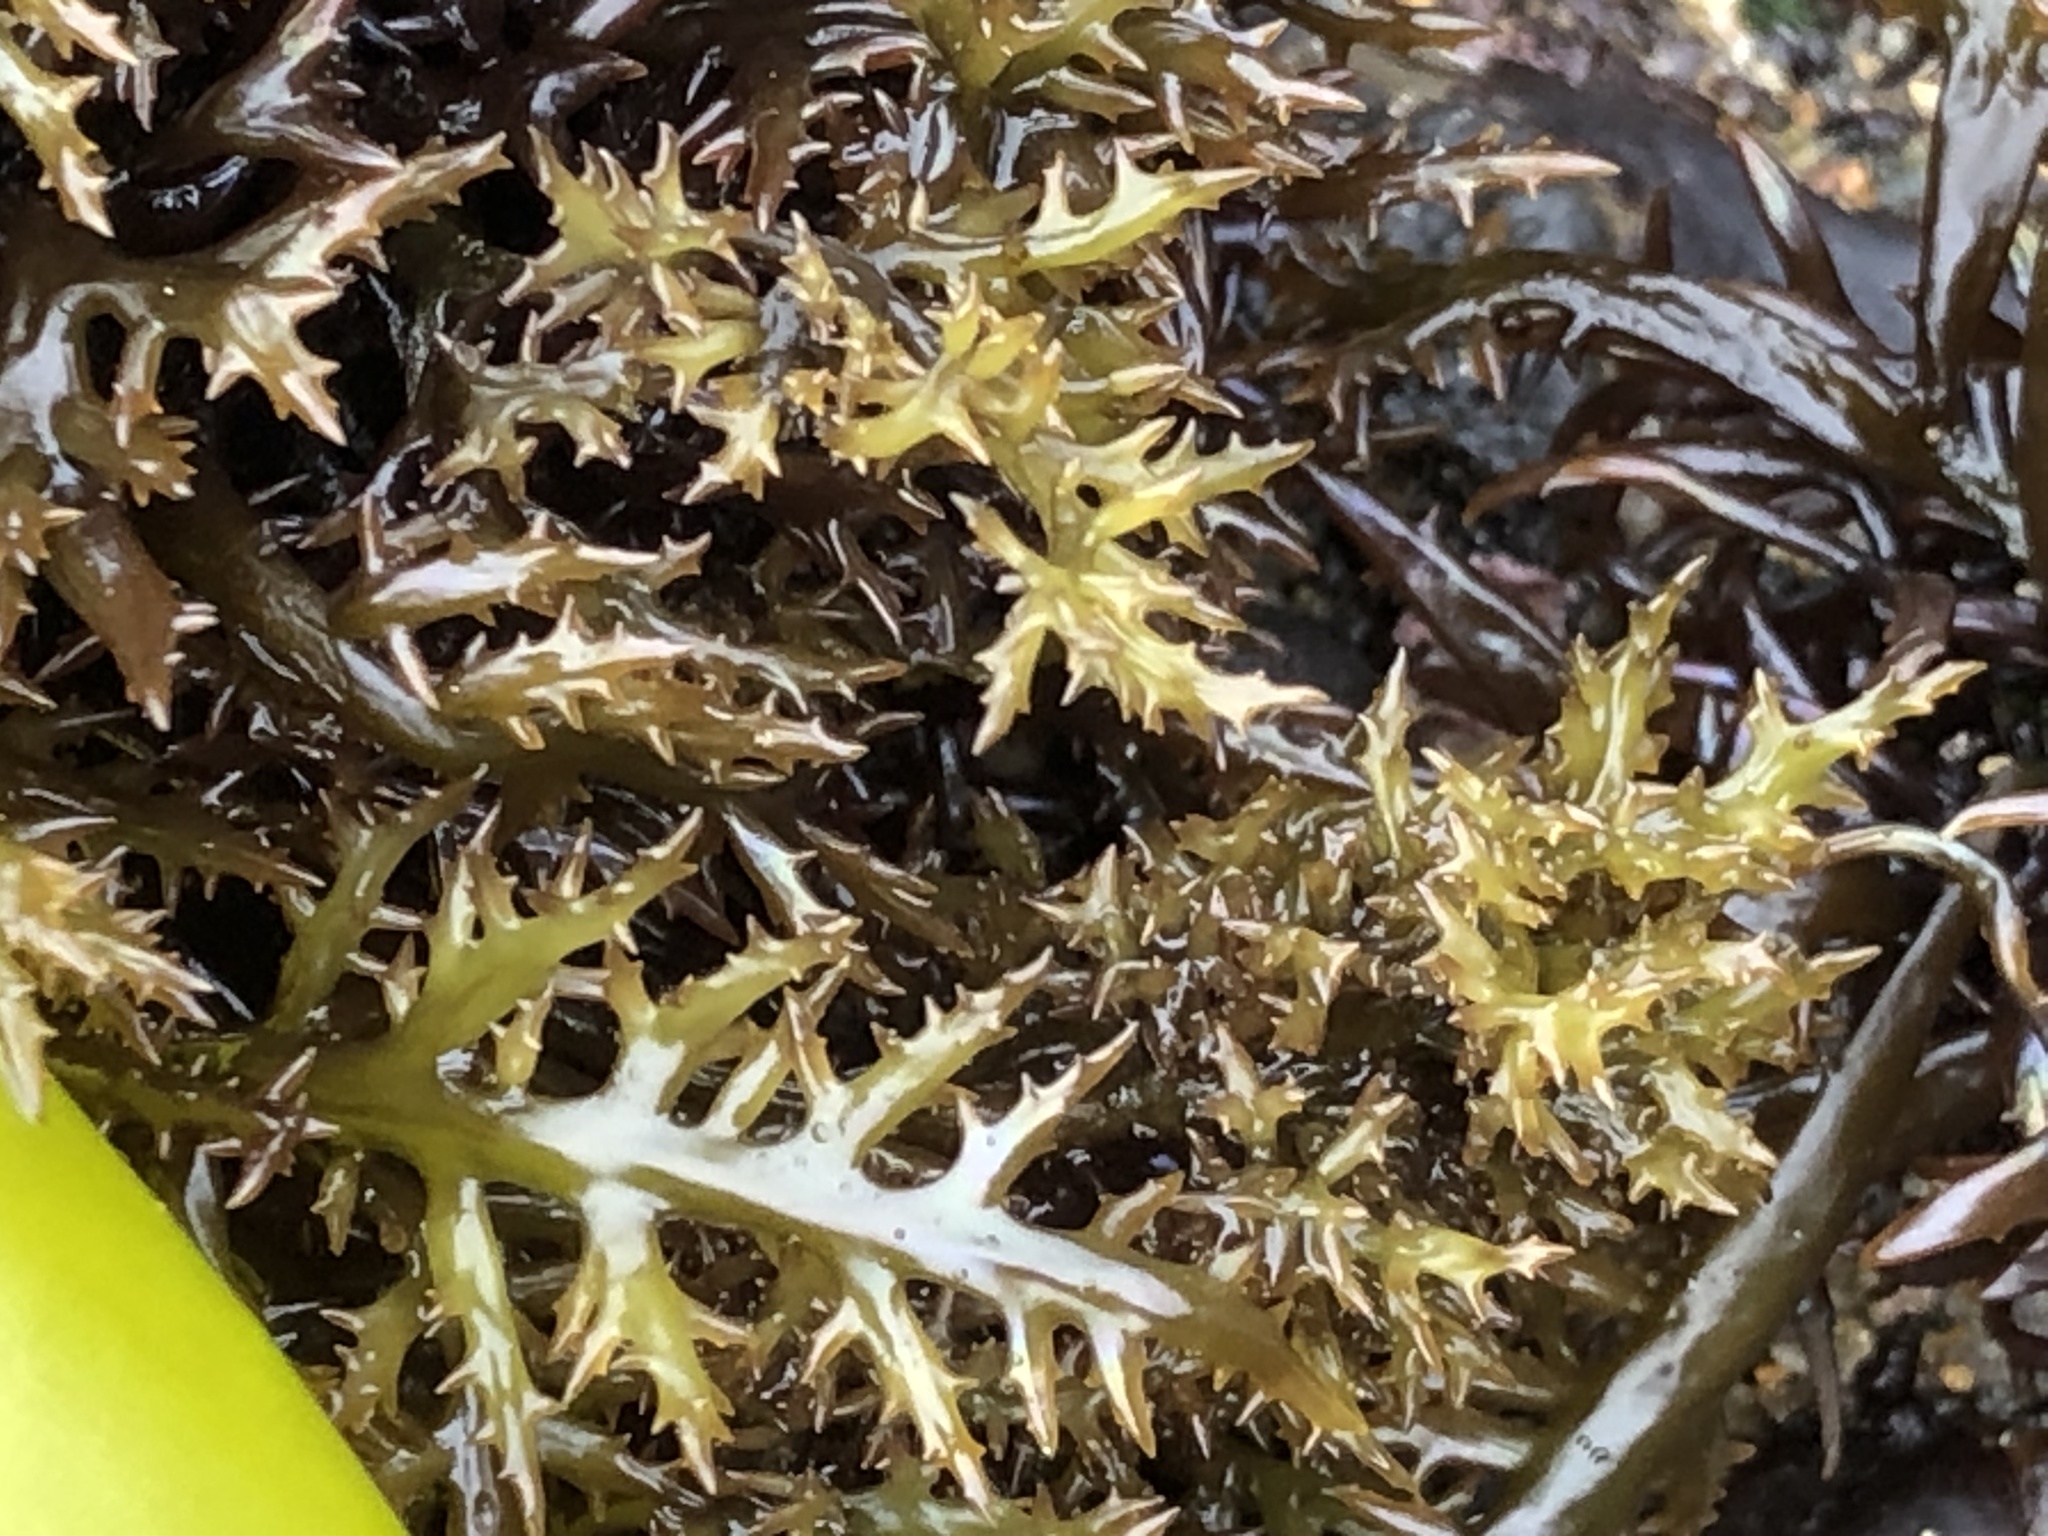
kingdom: Plantae
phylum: Rhodophyta
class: Florideophyceae
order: Gigartinales
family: Gigartinaceae
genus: Chondracanthus
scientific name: Chondracanthus canaliculatus
